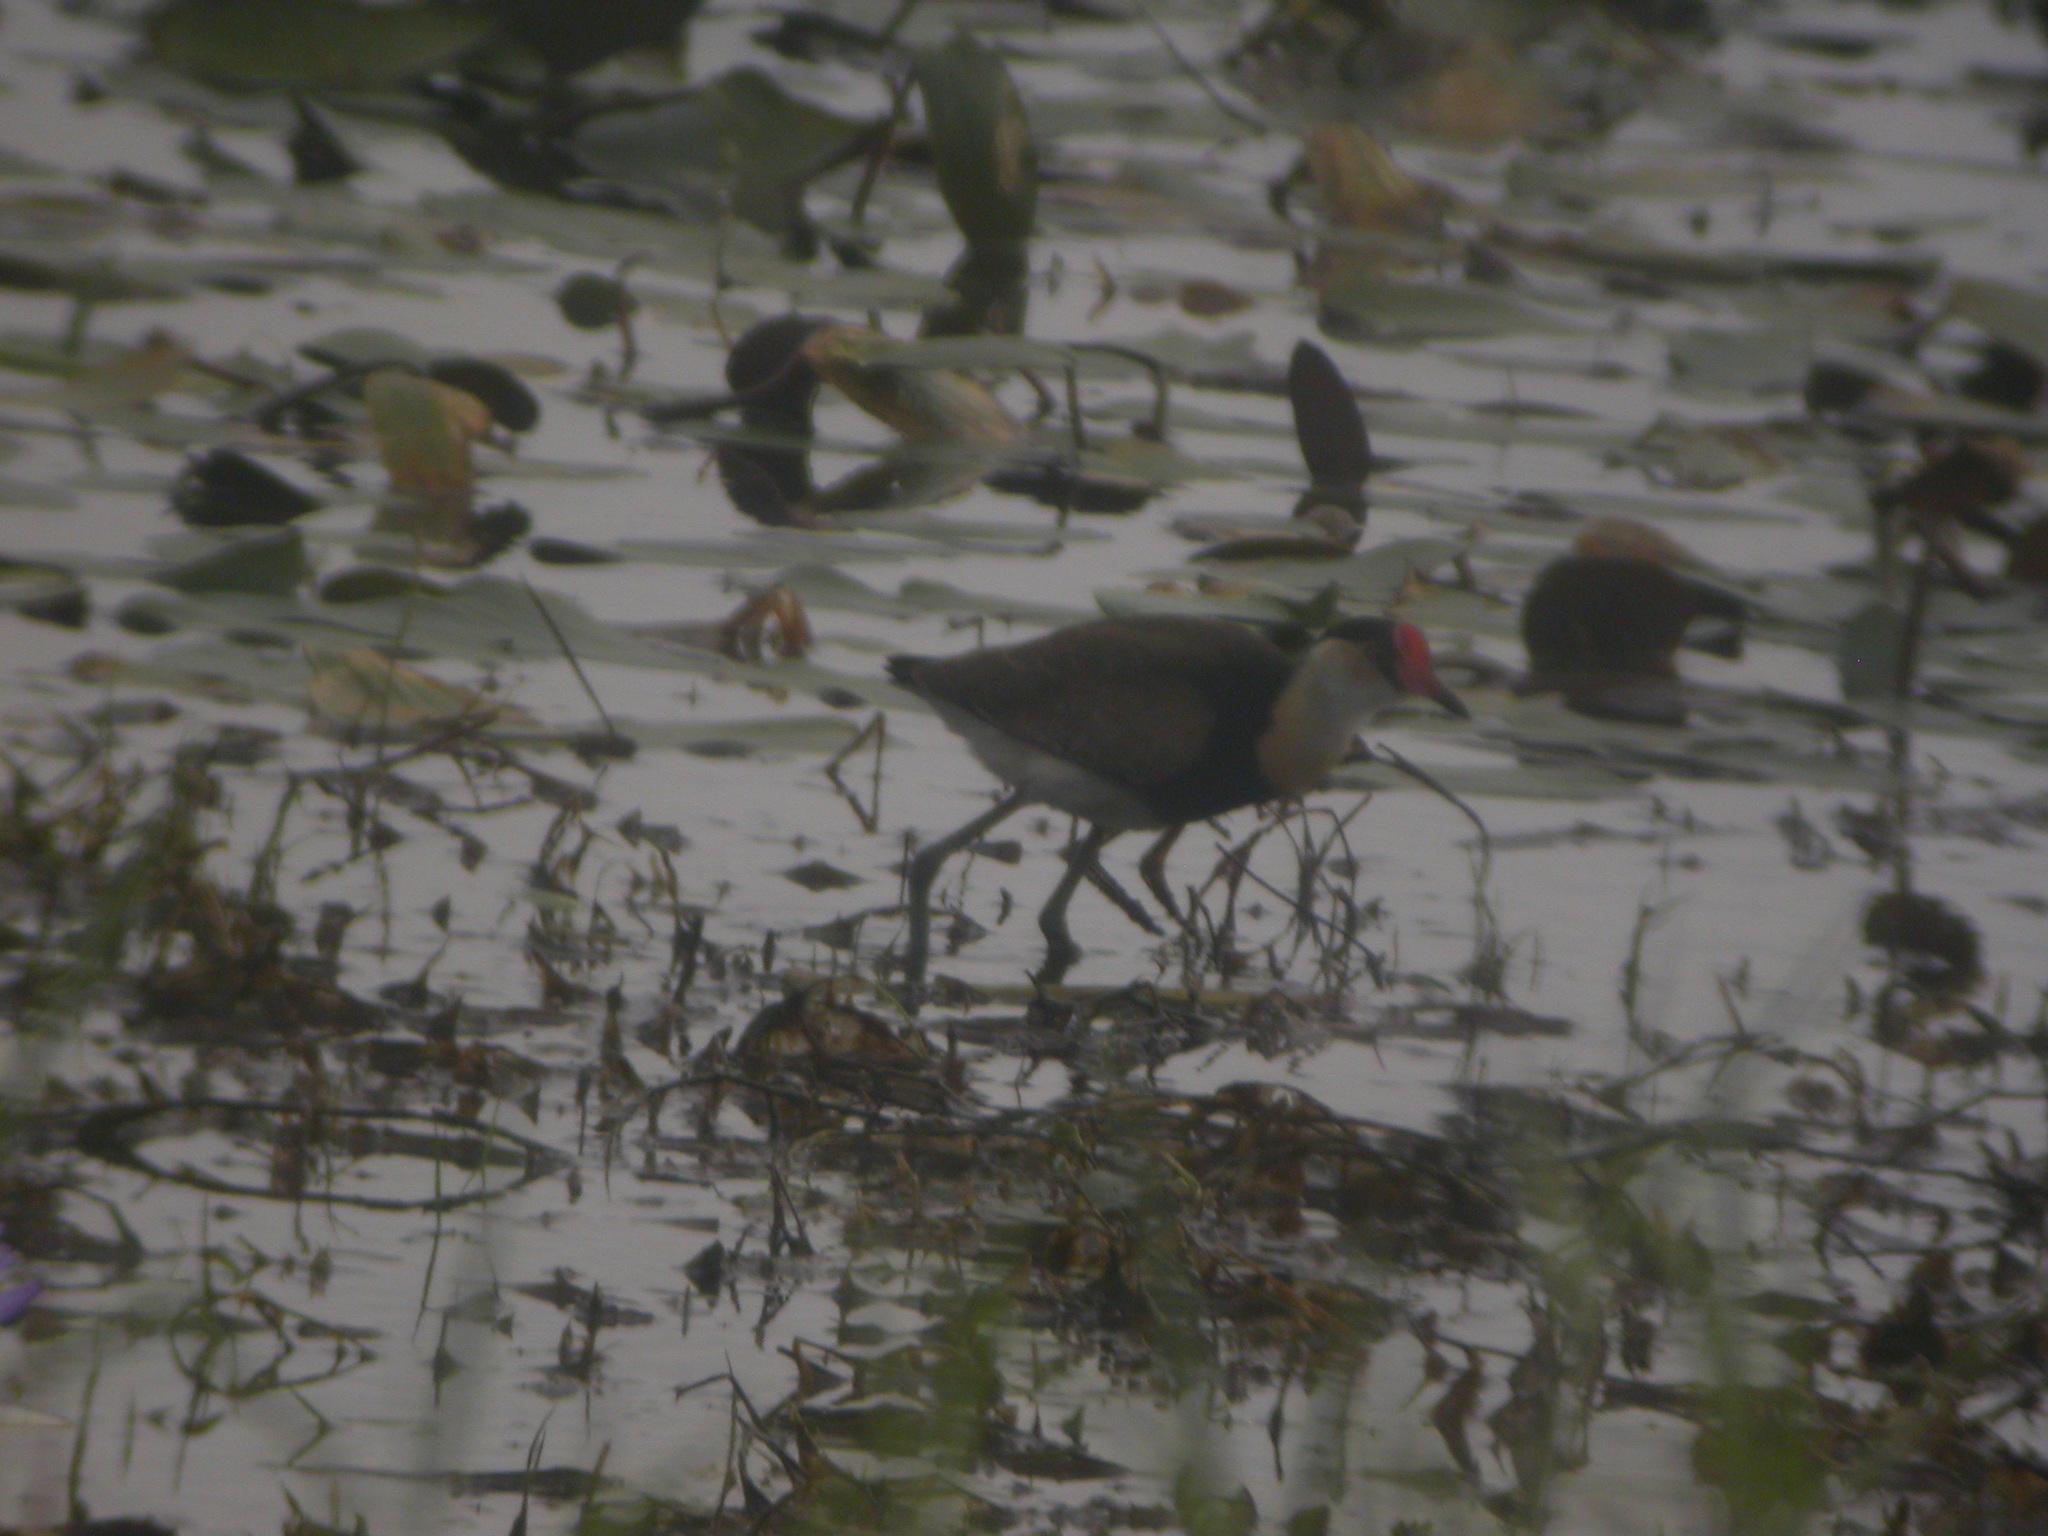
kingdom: Animalia
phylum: Chordata
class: Aves
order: Charadriiformes
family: Jacanidae
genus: Irediparra
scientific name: Irediparra gallinacea
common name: Comb-crested jacana
